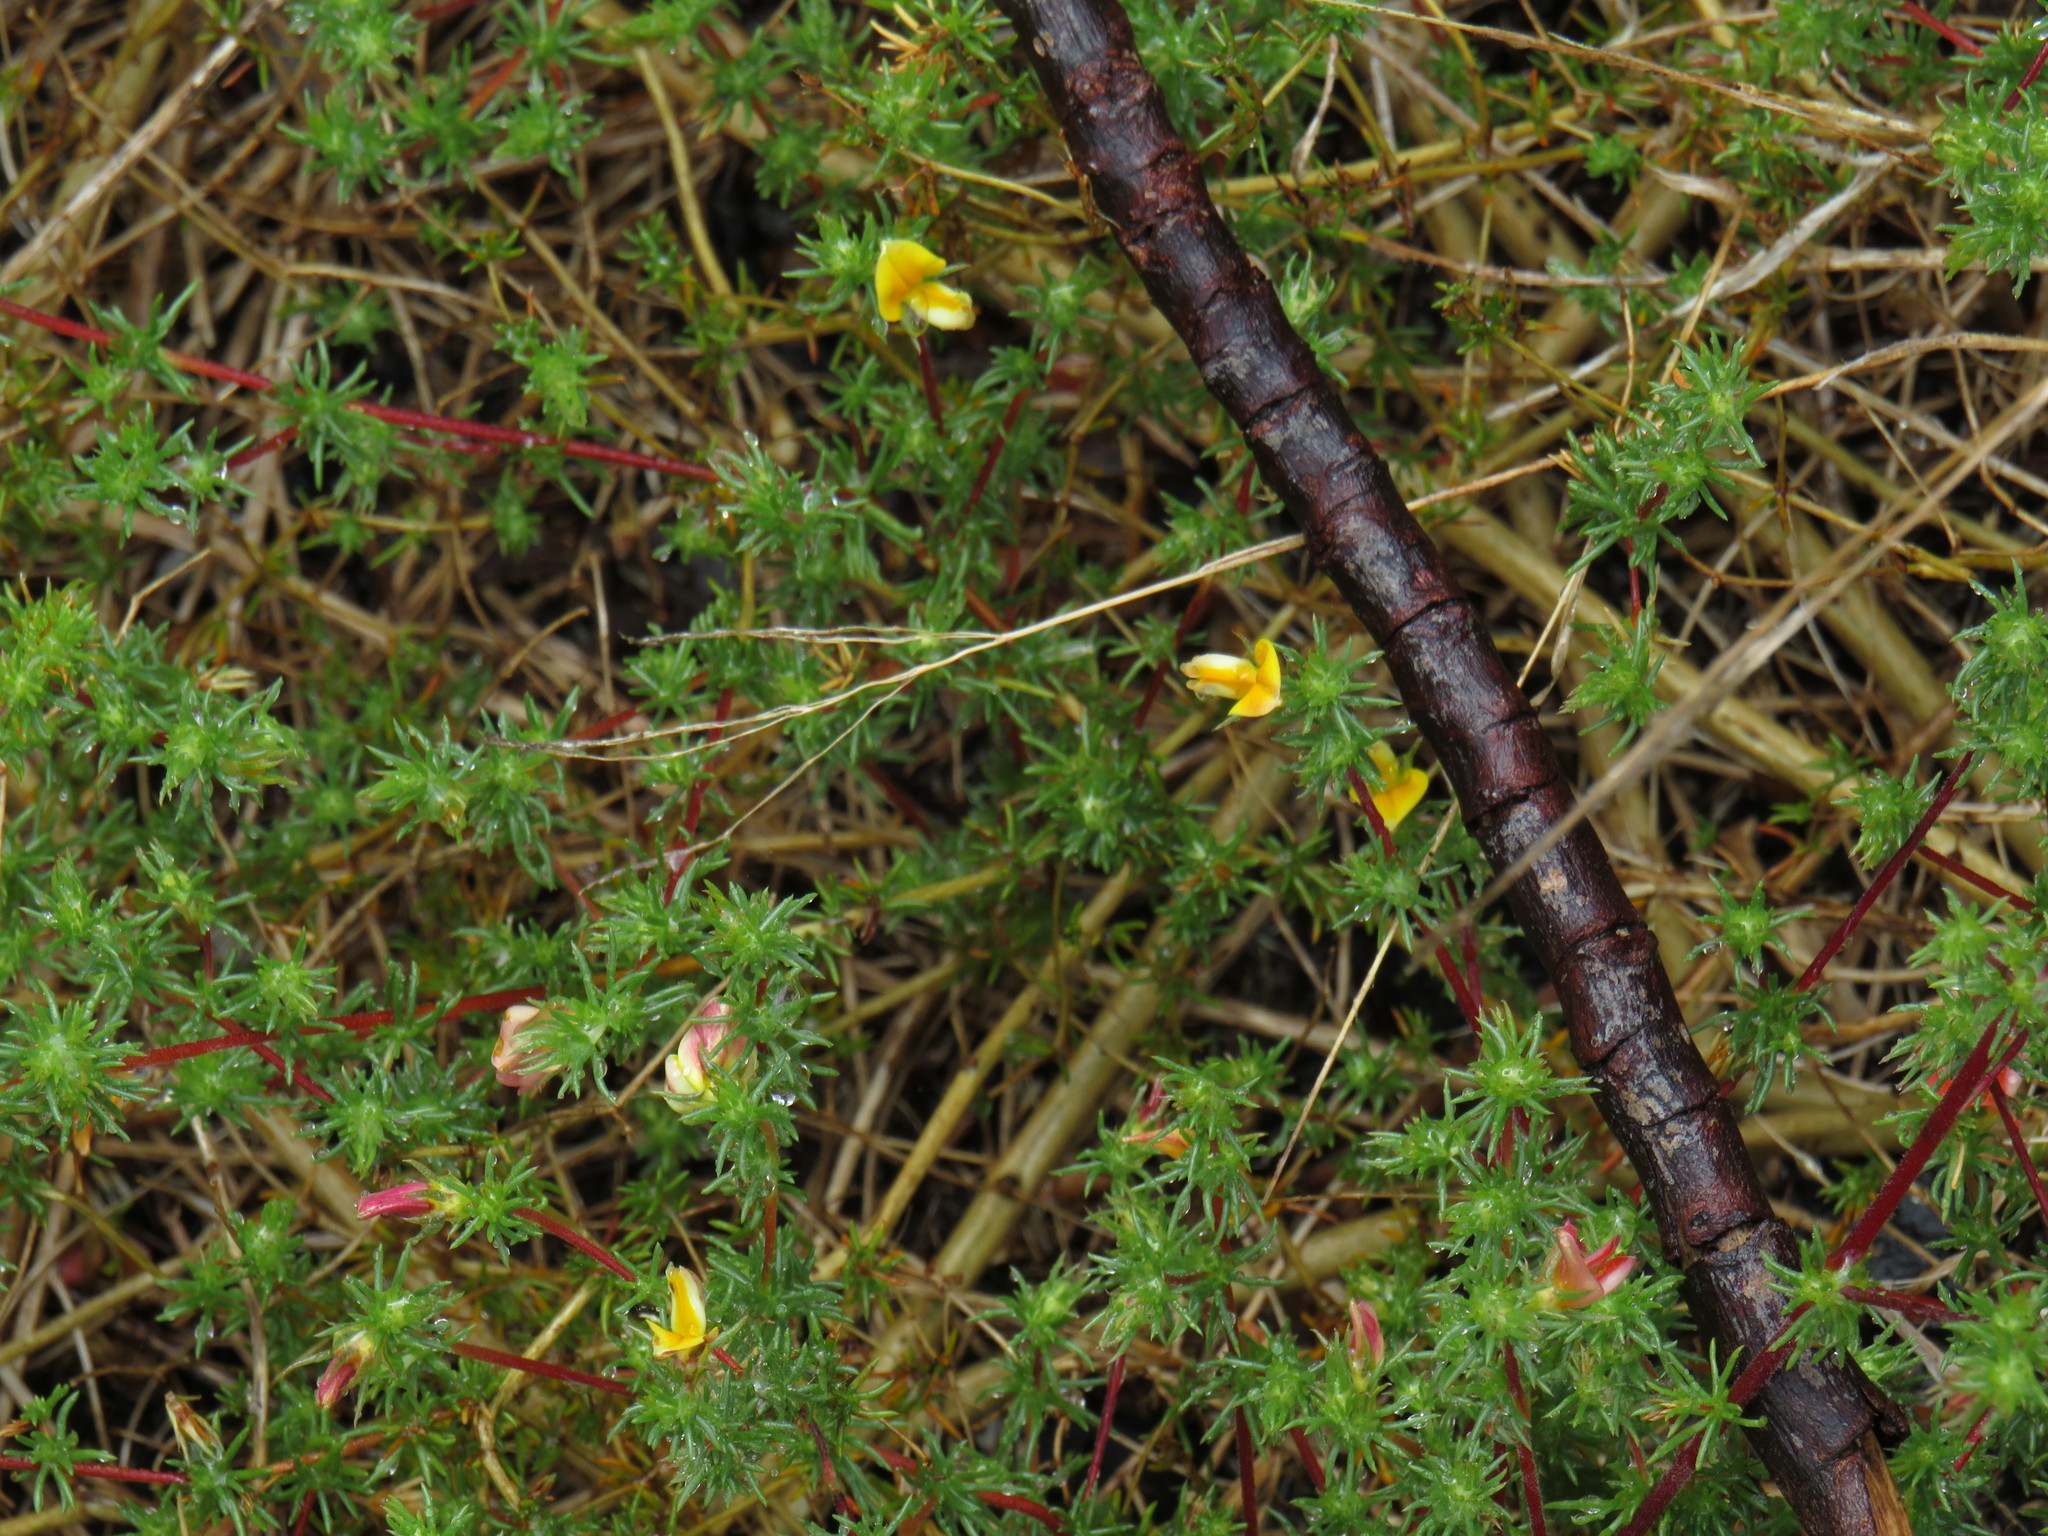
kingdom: Plantae
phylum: Tracheophyta
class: Magnoliopsida
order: Fabales
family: Fabaceae
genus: Aspalathus
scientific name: Aspalathus retroflexa
